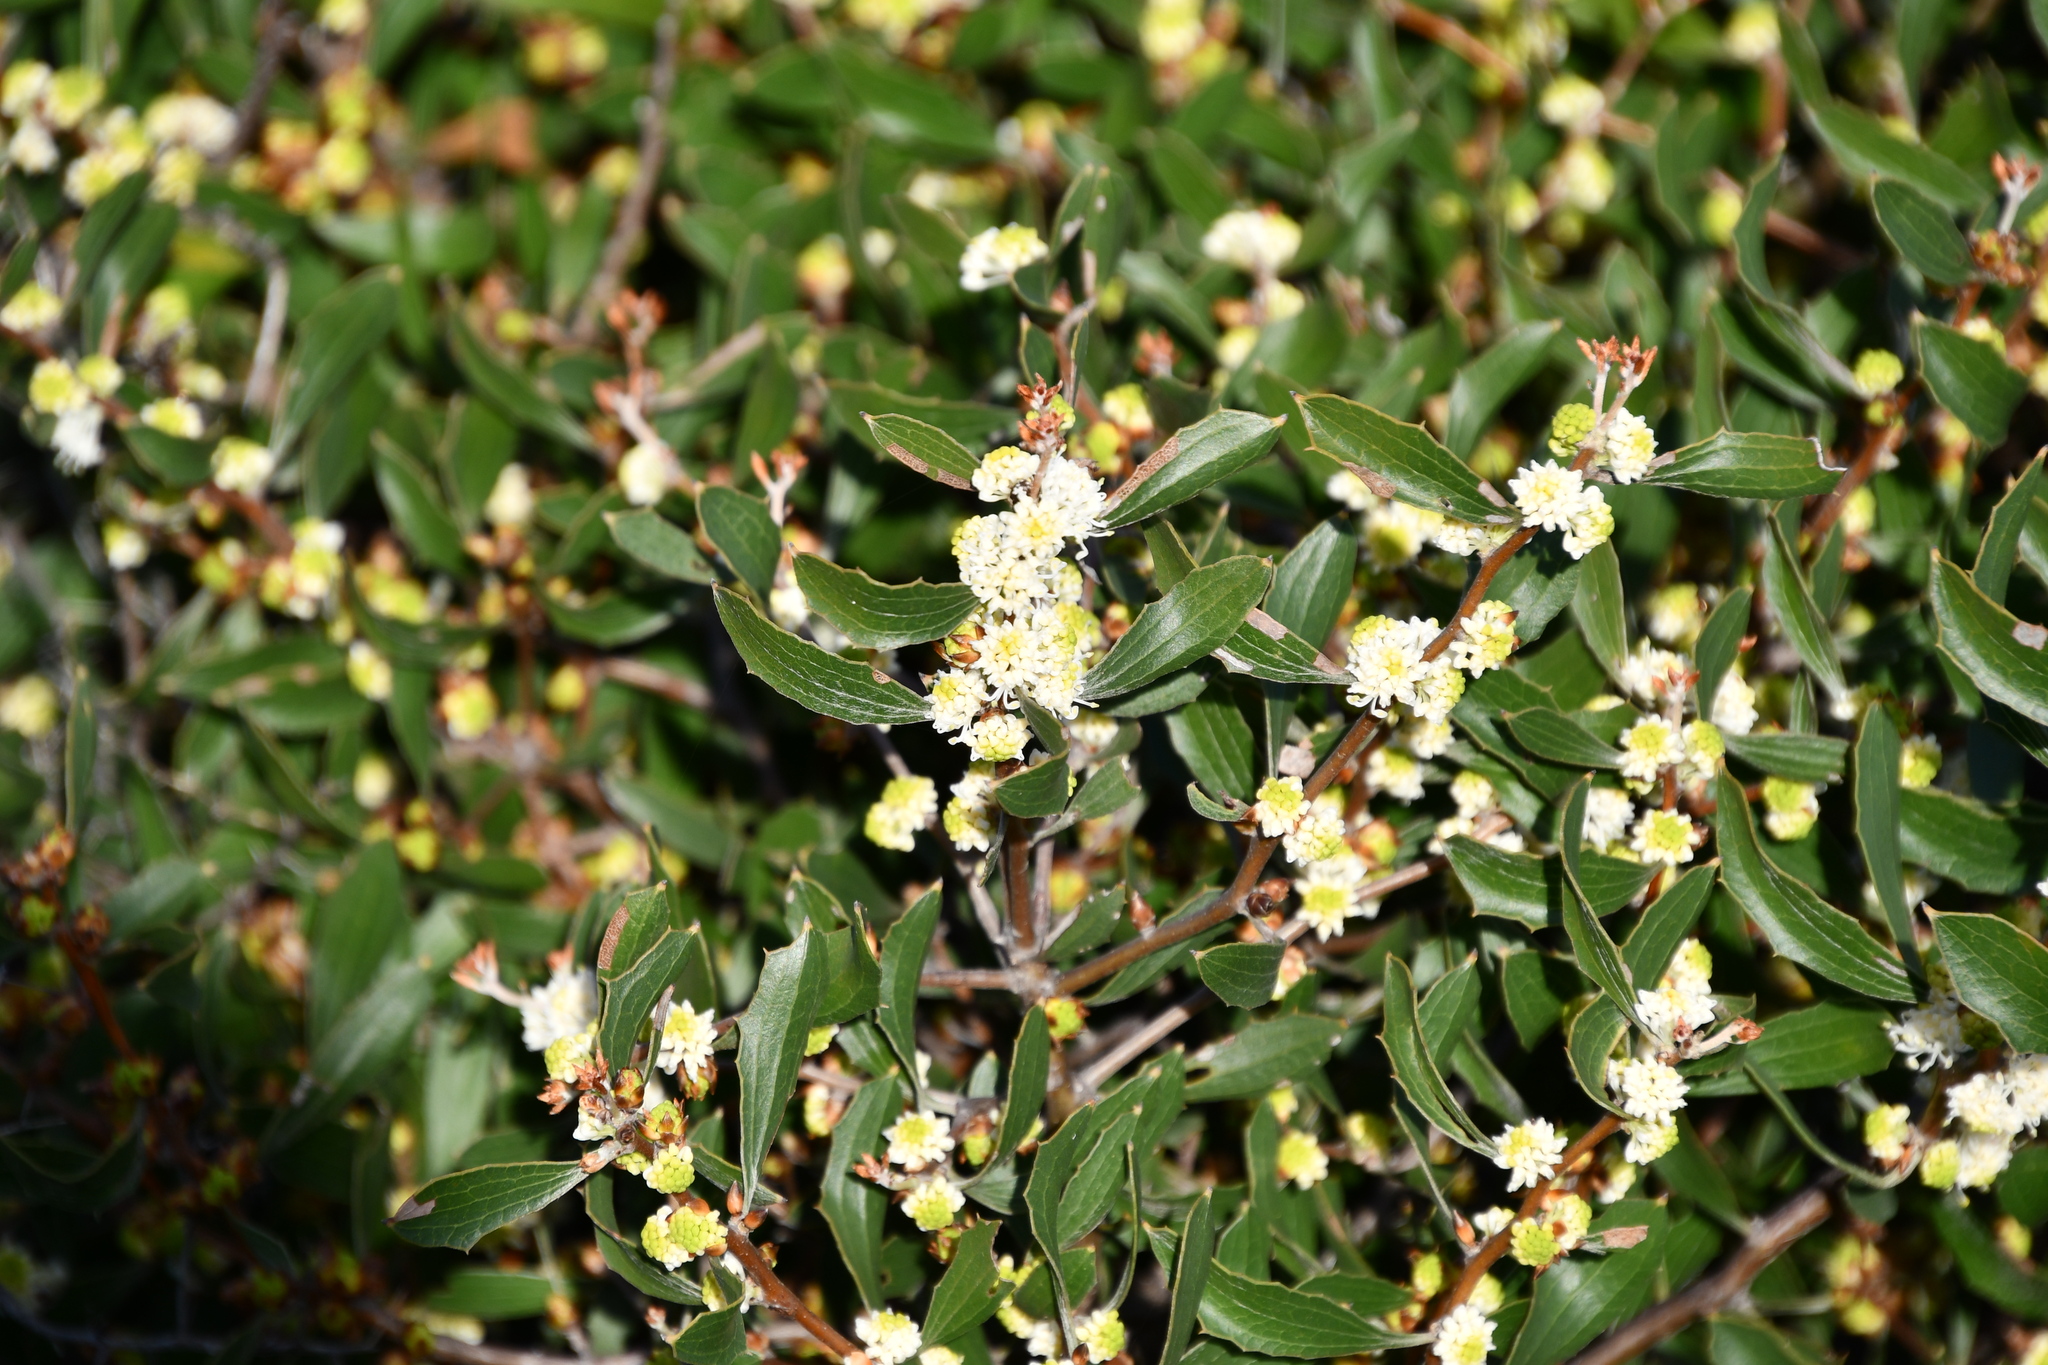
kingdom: Plantae
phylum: Tracheophyta
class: Magnoliopsida
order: Proteales
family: Proteaceae
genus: Hakea
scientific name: Hakea anadenia
